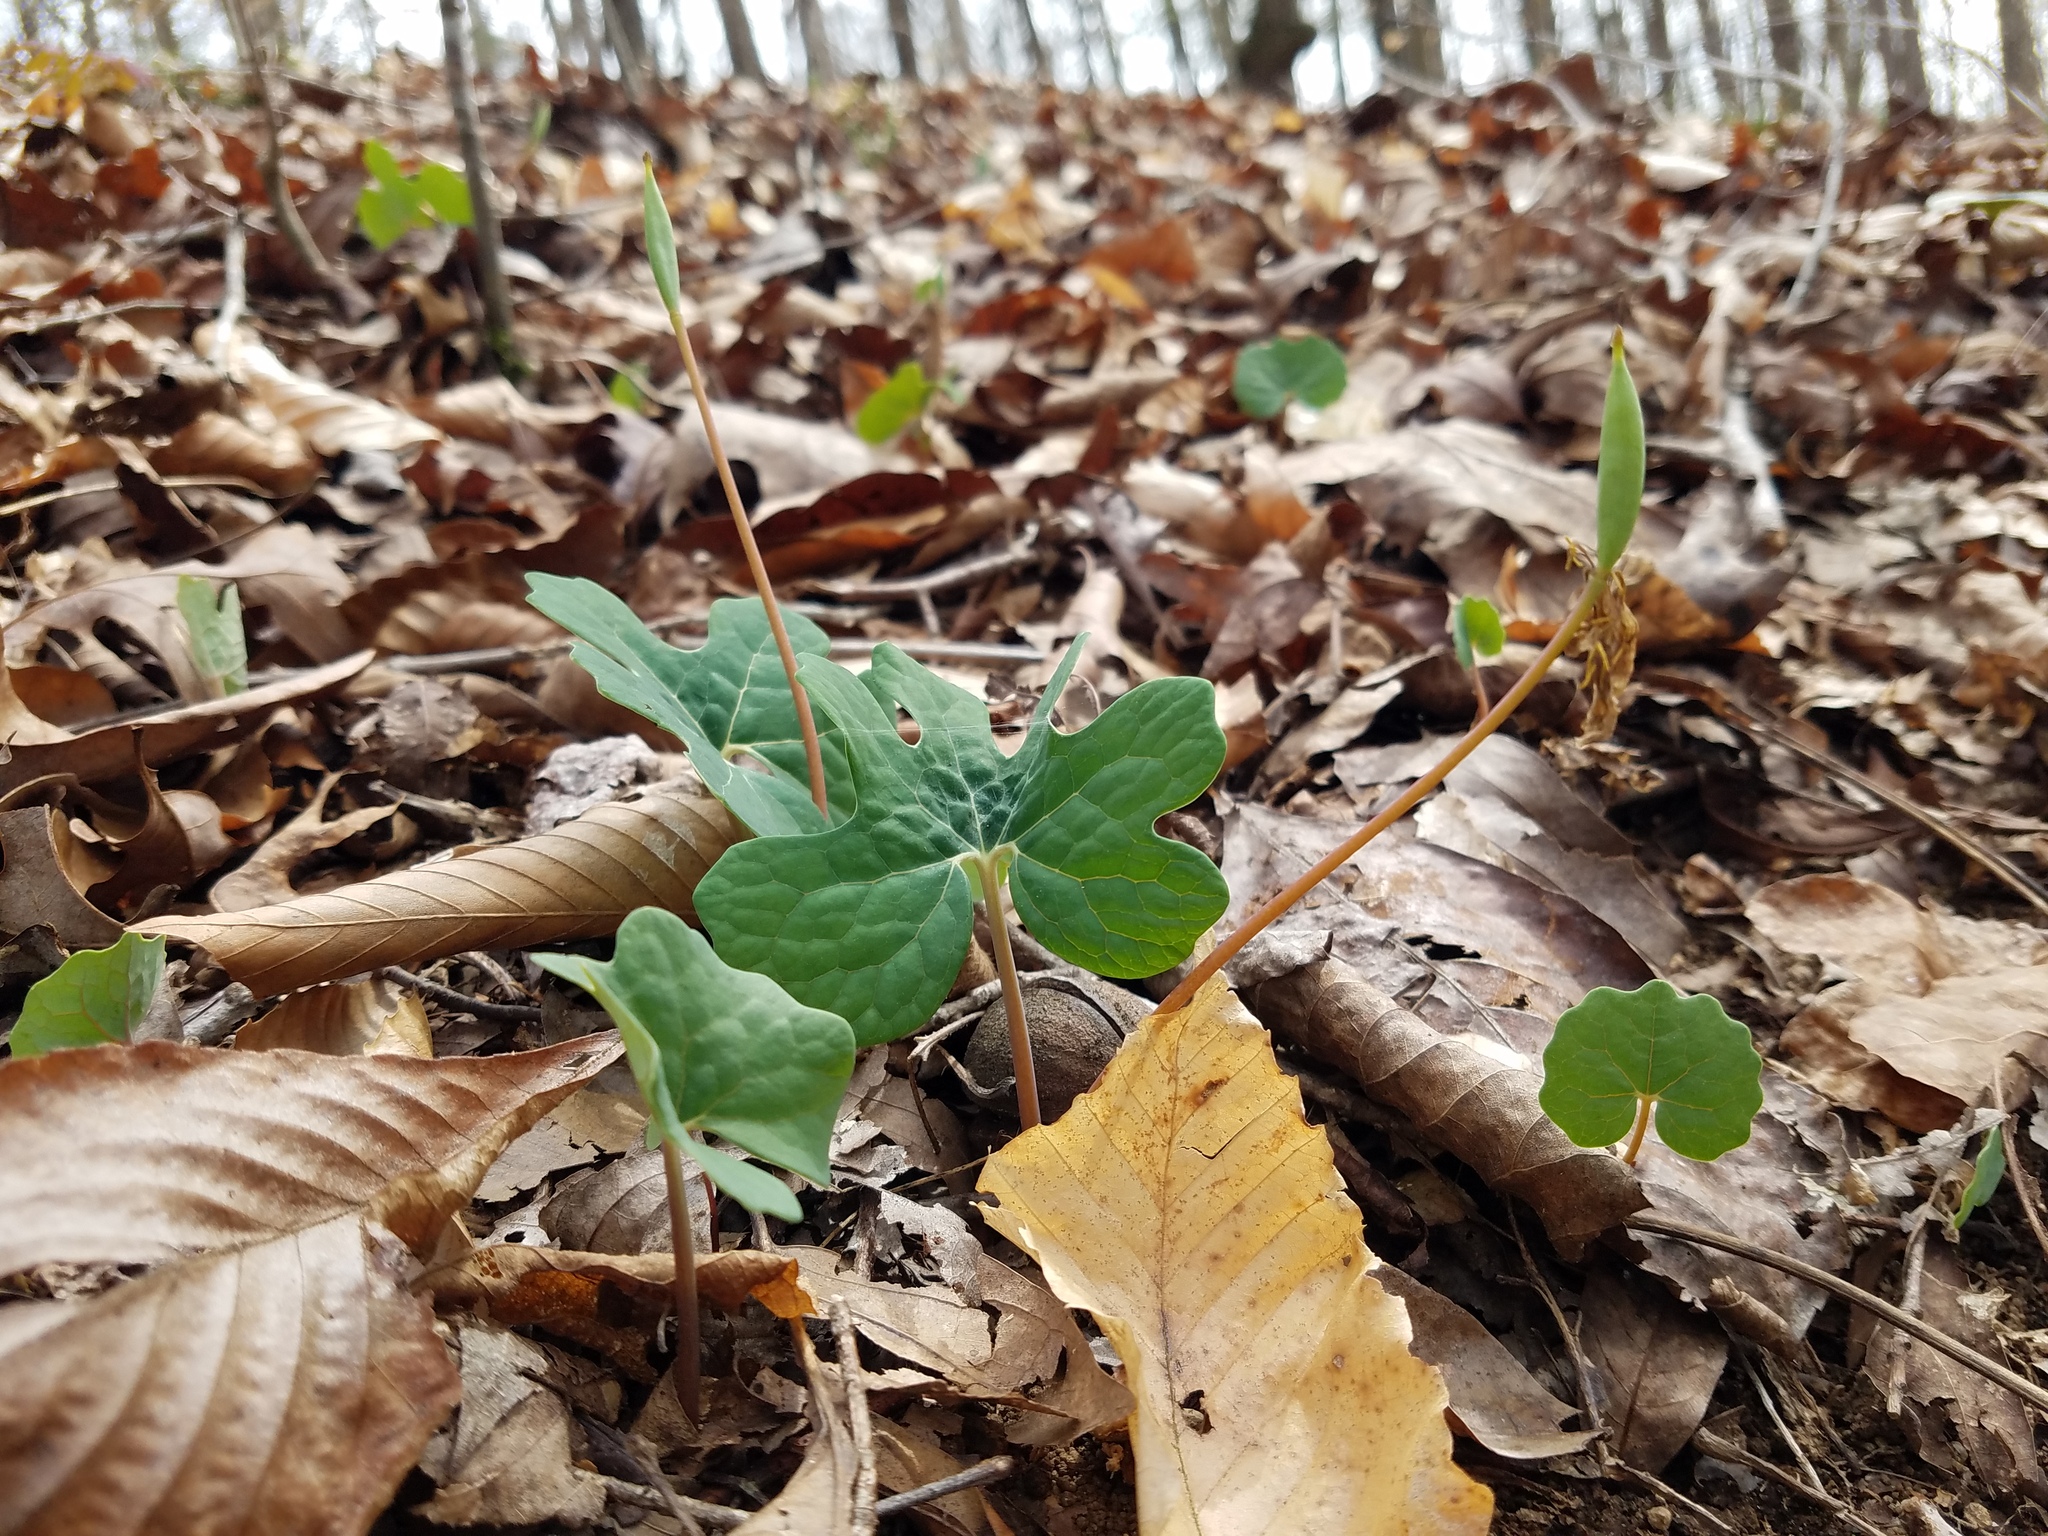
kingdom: Plantae
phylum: Tracheophyta
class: Magnoliopsida
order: Ranunculales
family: Papaveraceae
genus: Sanguinaria
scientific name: Sanguinaria canadensis
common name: Bloodroot
